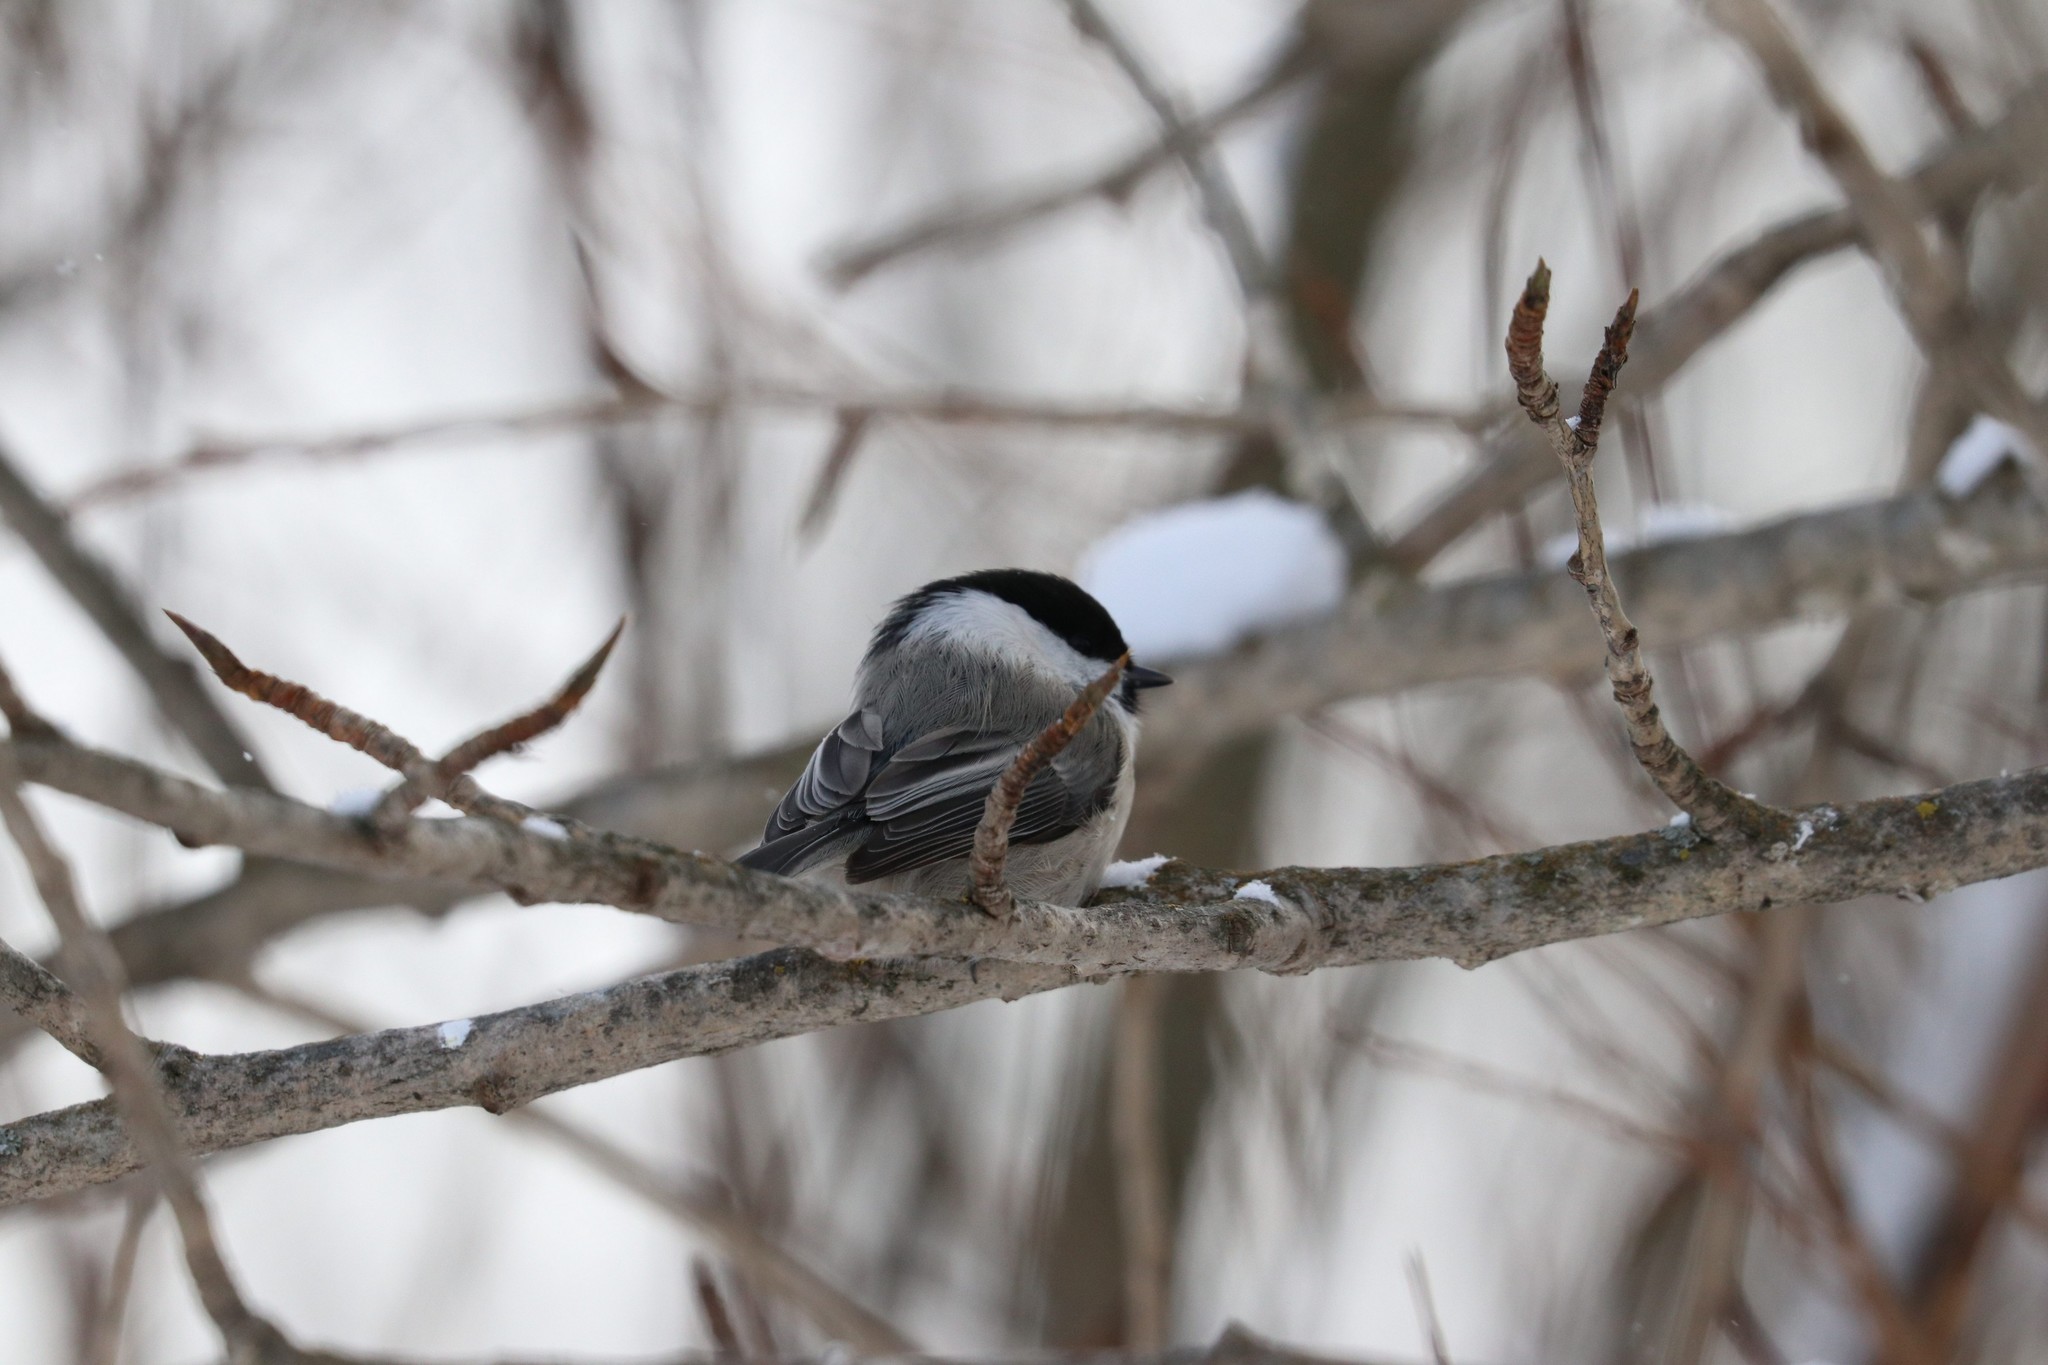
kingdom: Animalia
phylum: Chordata
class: Aves
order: Passeriformes
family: Paridae
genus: Poecile
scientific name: Poecile montanus
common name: Willow tit
